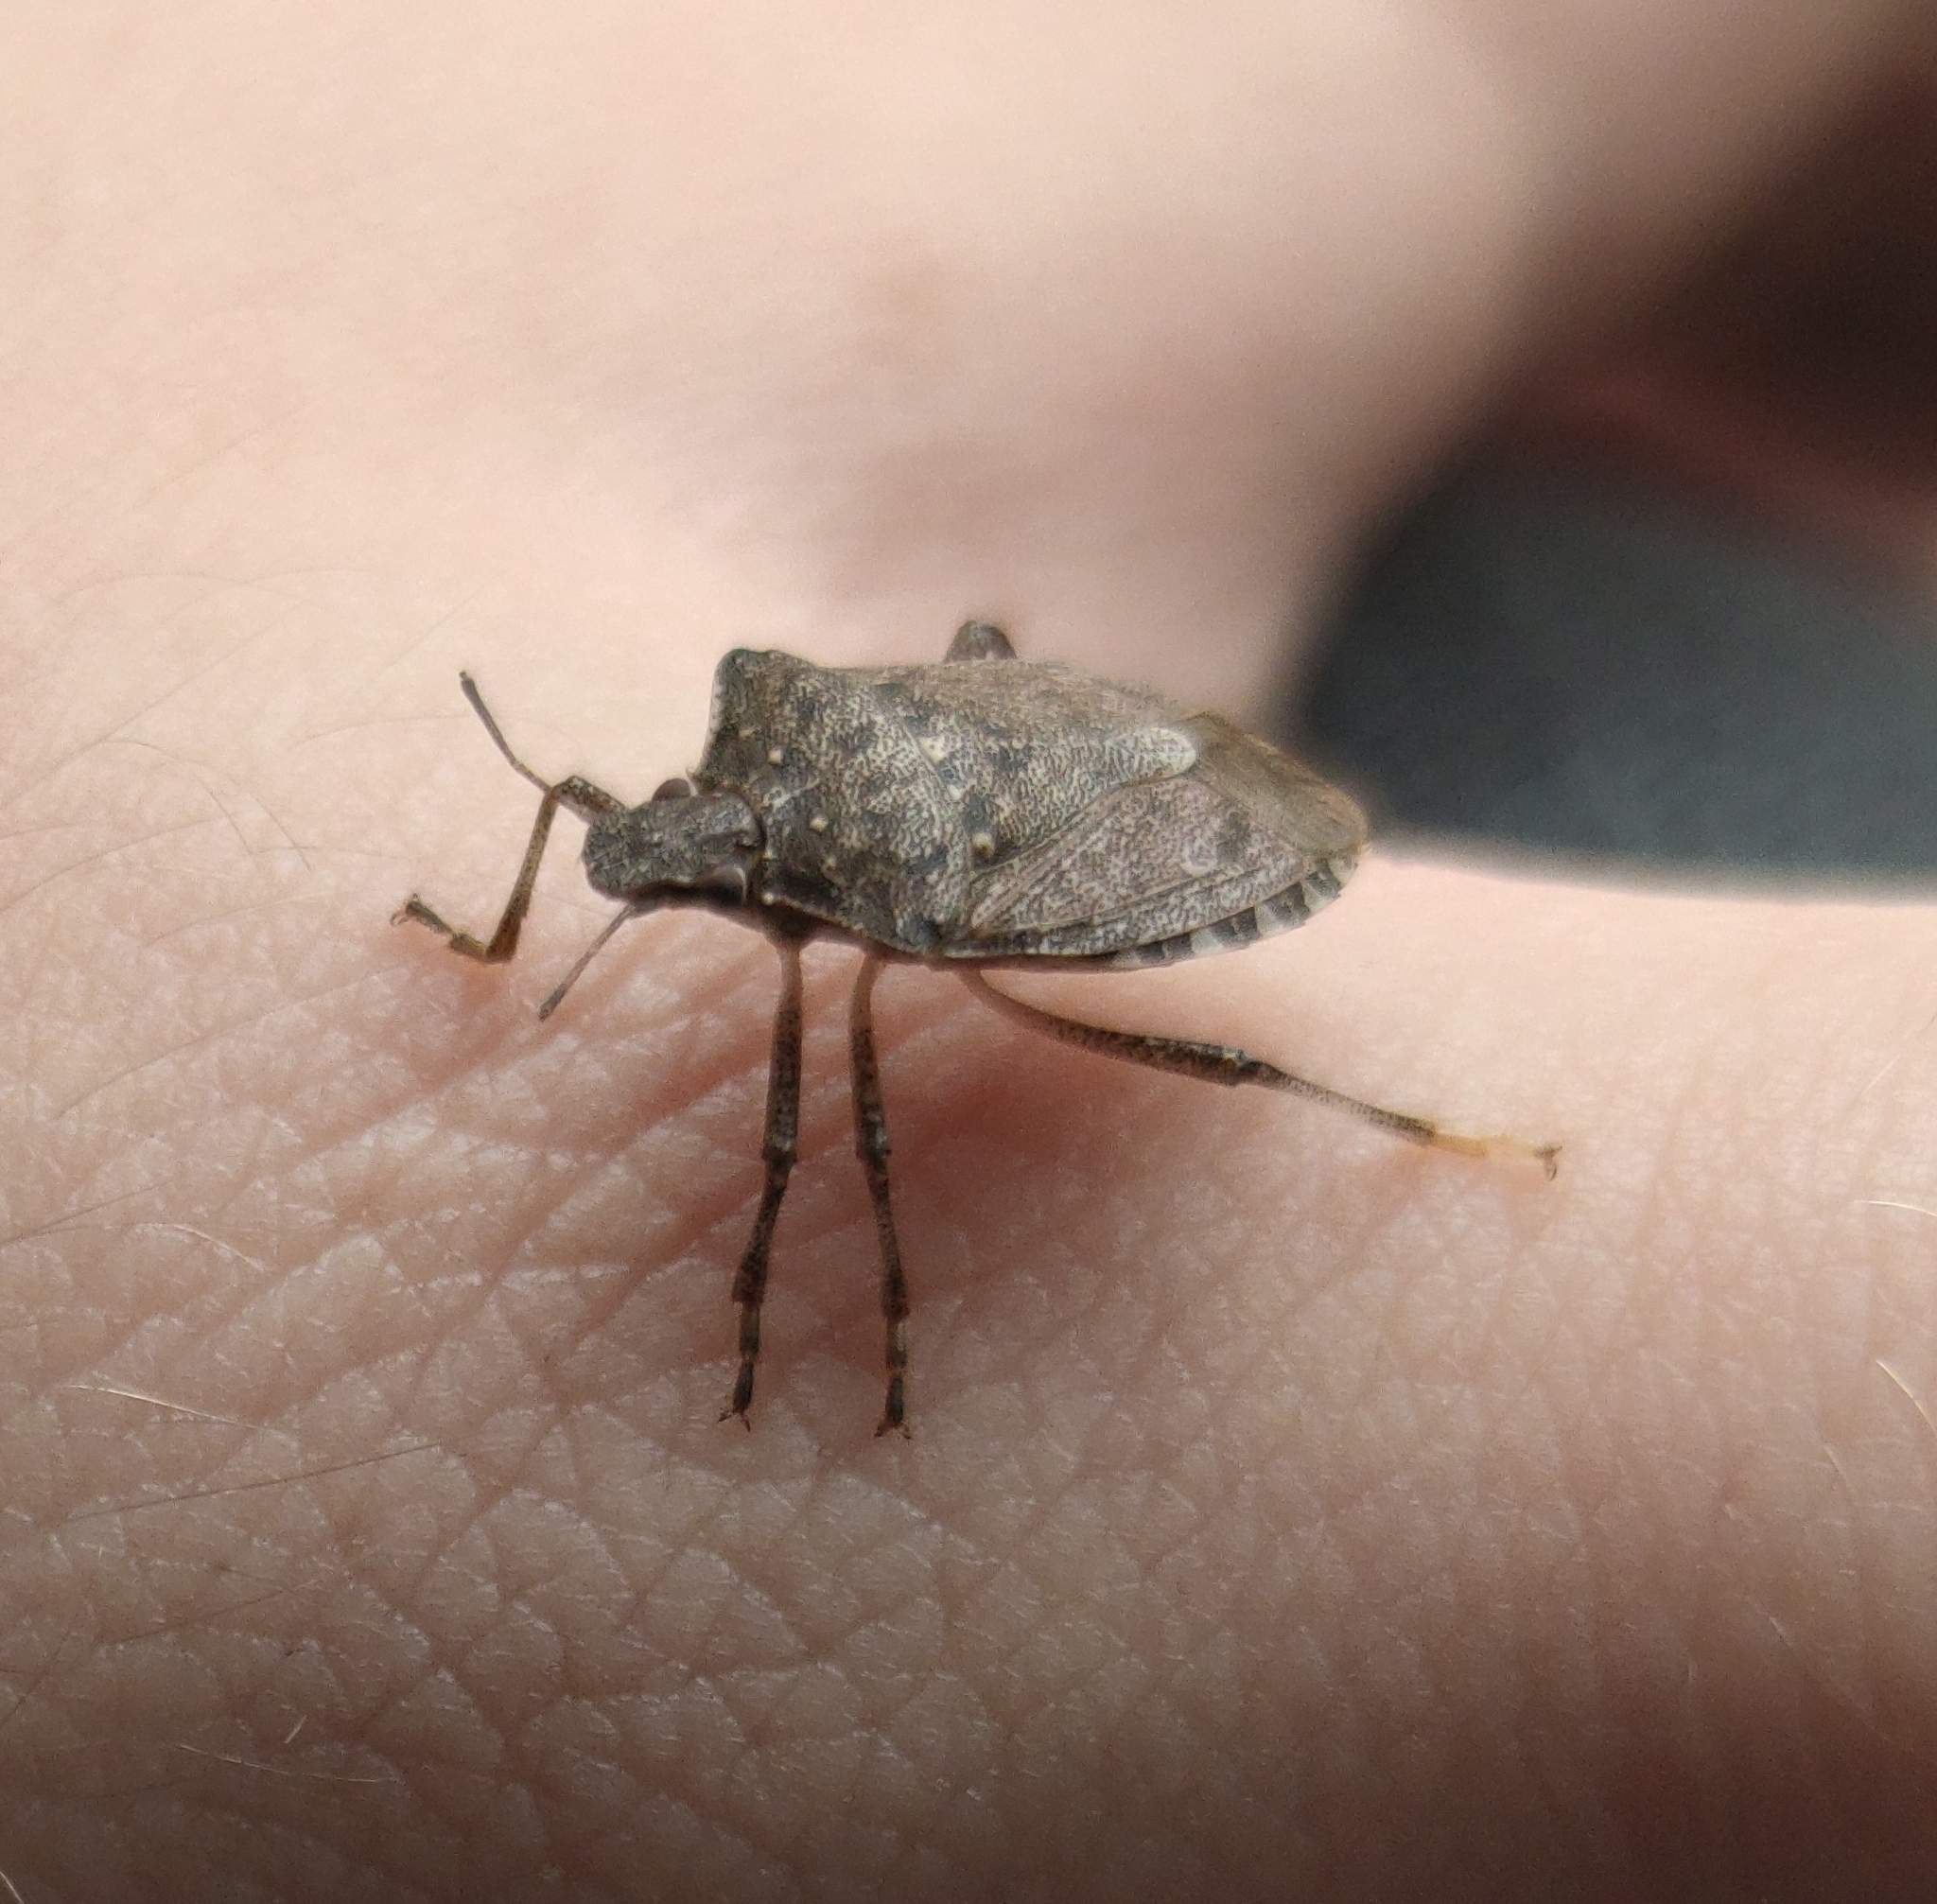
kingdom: Animalia
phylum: Arthropoda
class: Insecta
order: Hemiptera
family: Pentatomidae
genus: Halyomorpha
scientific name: Halyomorpha halys
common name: Brown marmorated stink bug
